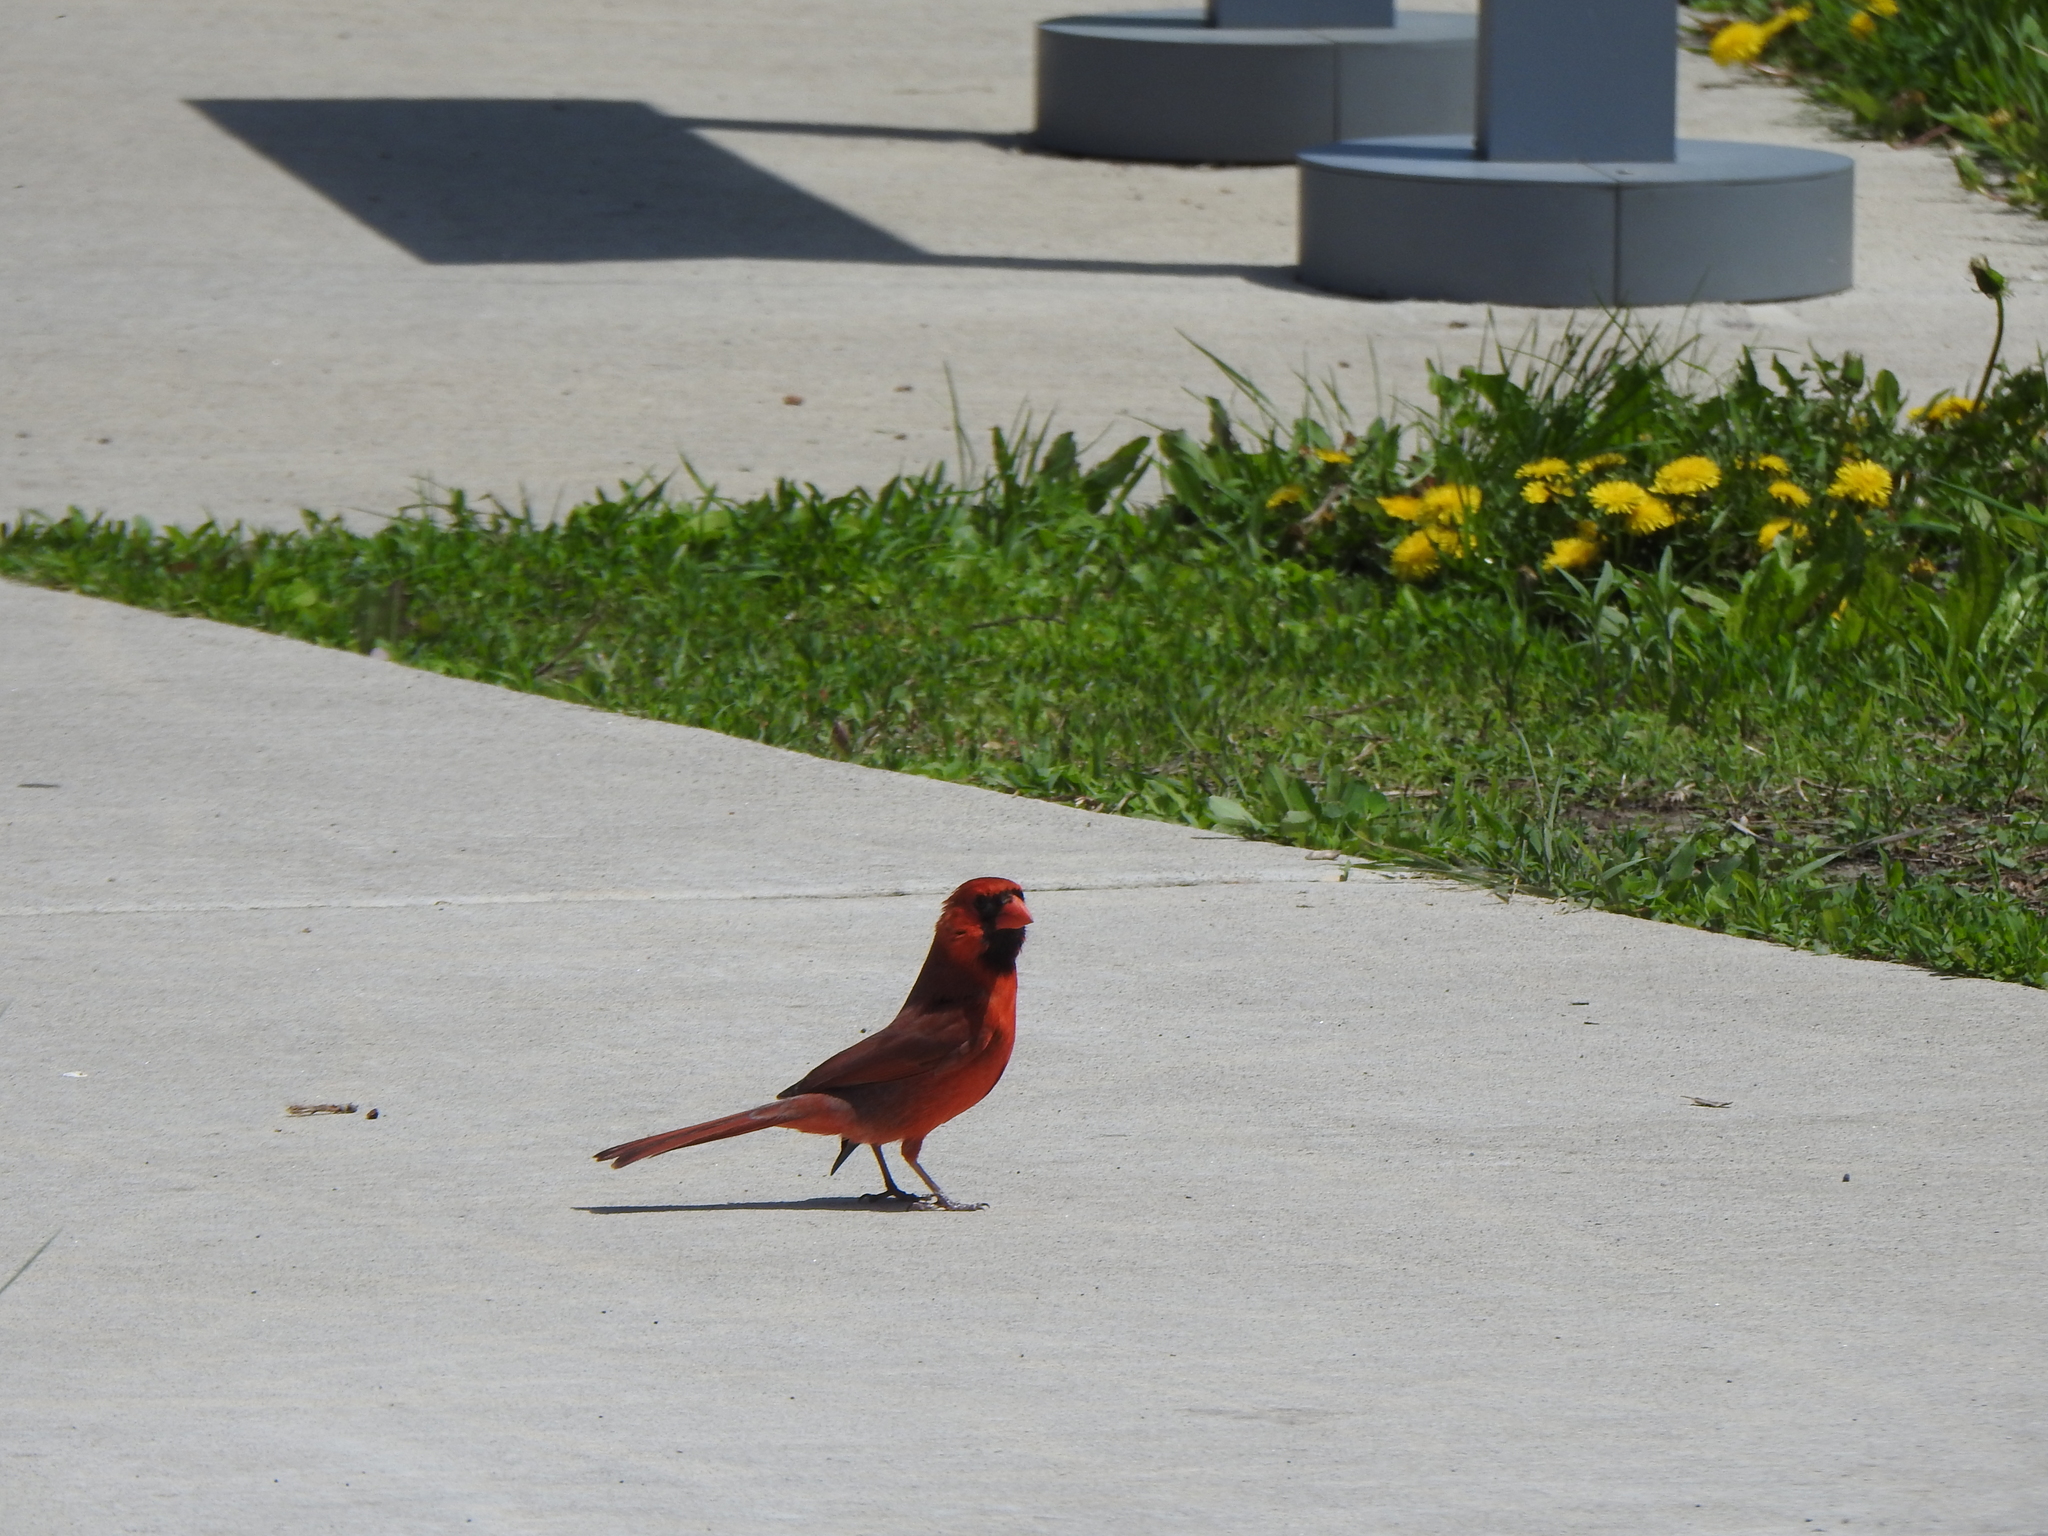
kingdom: Animalia
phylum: Chordata
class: Aves
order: Passeriformes
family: Cardinalidae
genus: Cardinalis
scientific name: Cardinalis cardinalis
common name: Northern cardinal
